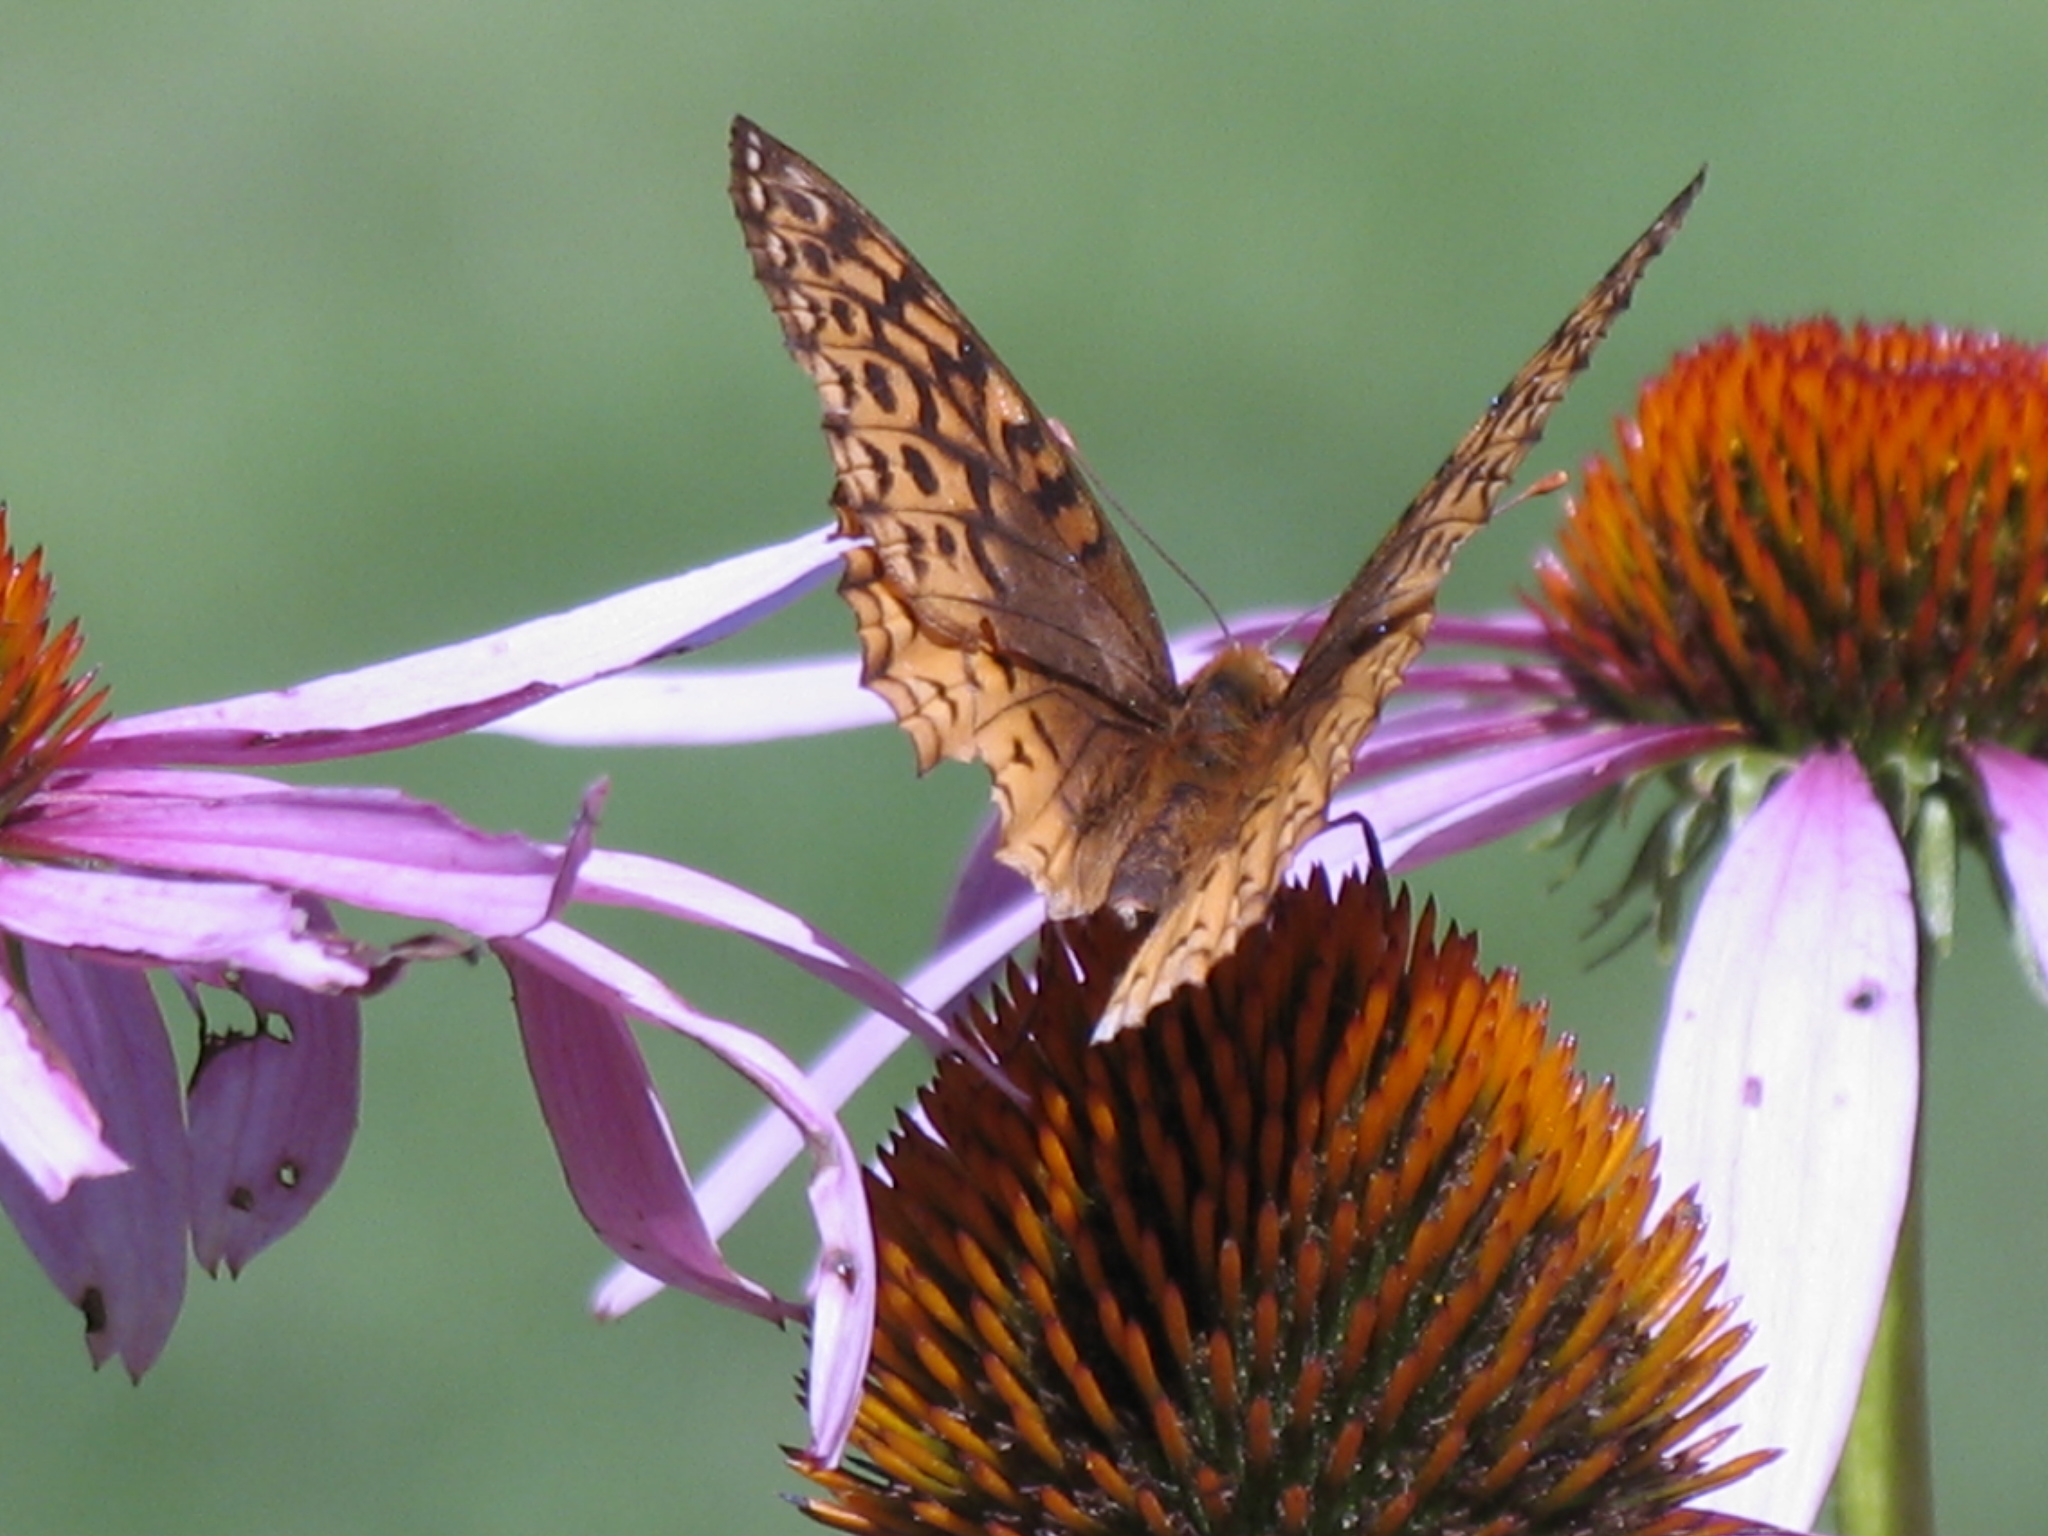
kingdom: Animalia
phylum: Arthropoda
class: Insecta
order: Lepidoptera
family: Nymphalidae
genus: Speyeria
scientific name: Speyeria cybele
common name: Great spangled fritillary
